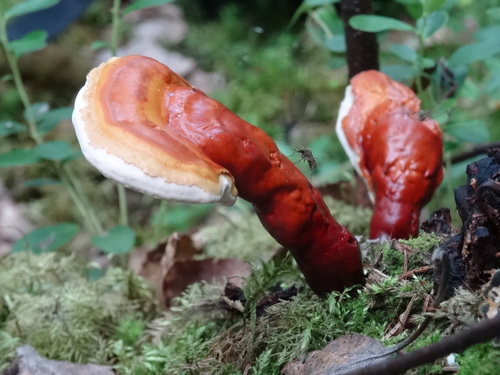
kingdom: Fungi
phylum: Basidiomycota
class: Agaricomycetes
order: Polyporales
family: Polyporaceae
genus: Ganoderma
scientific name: Ganoderma lucidum
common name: Lacquered bracket
